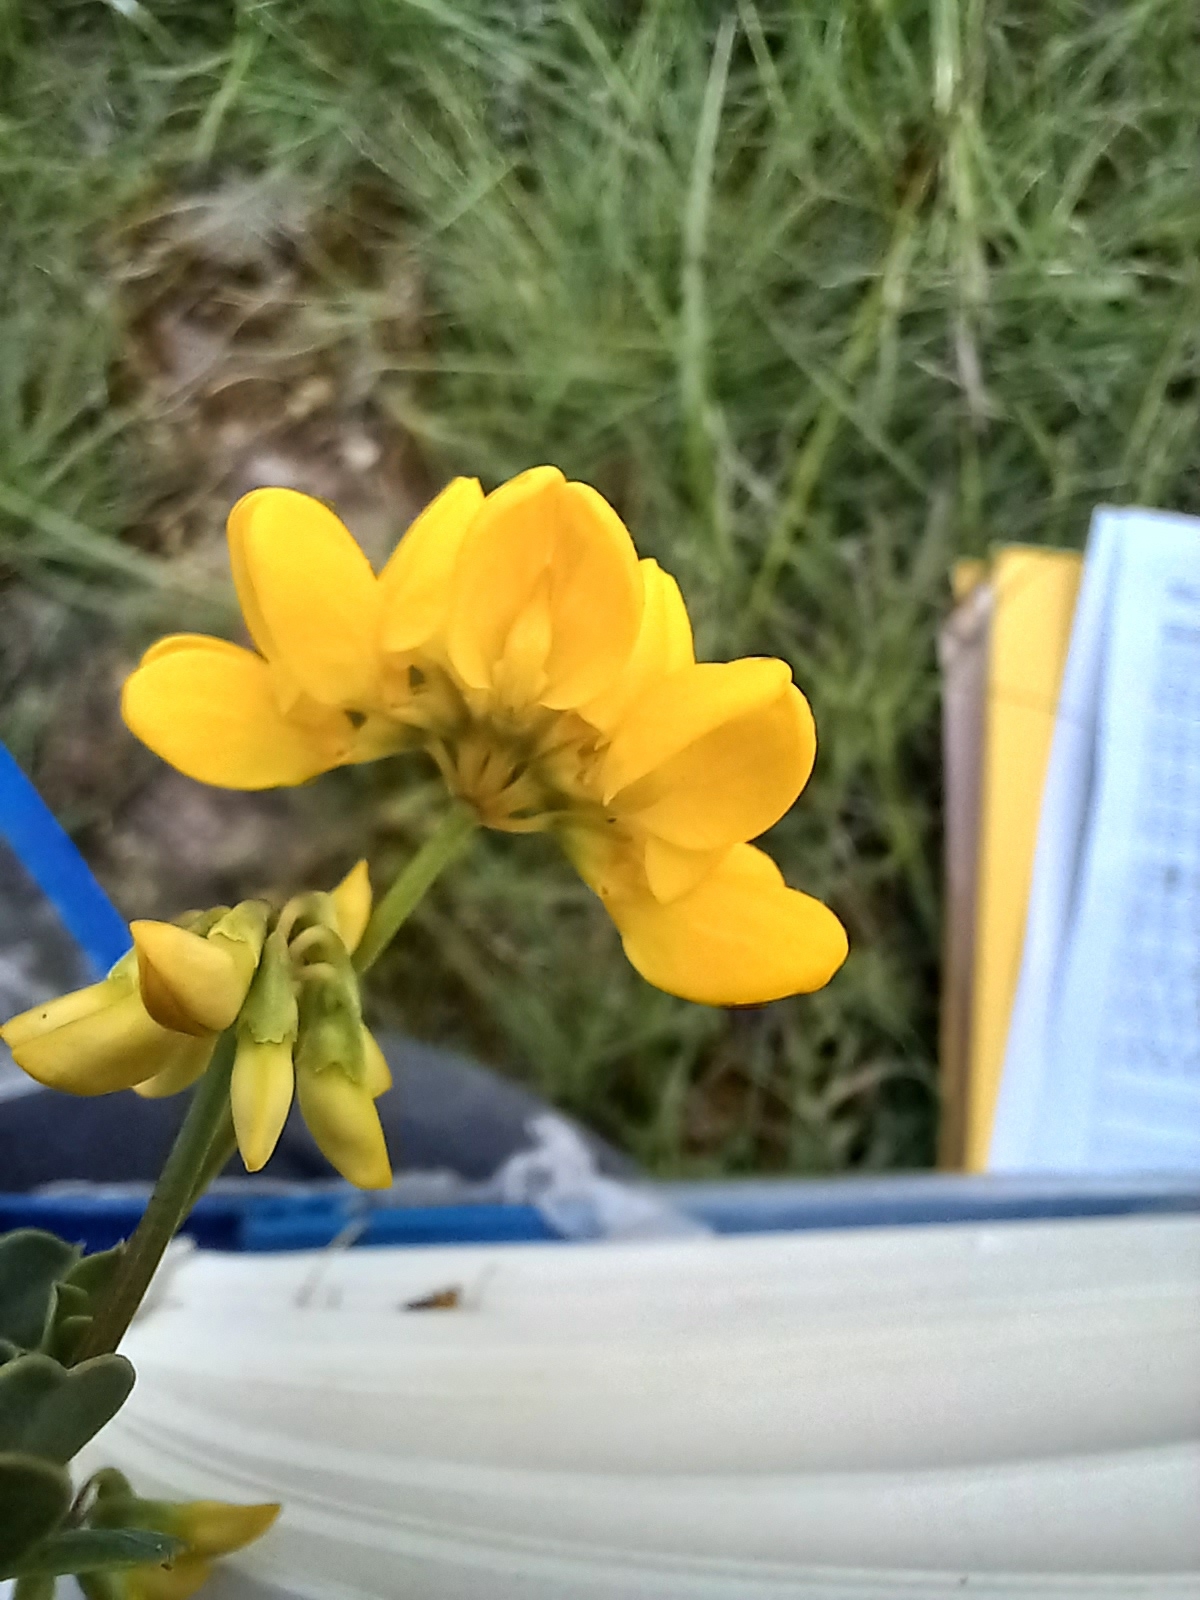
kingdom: Plantae
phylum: Tracheophyta
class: Magnoliopsida
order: Fabales
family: Fabaceae
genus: Coronilla
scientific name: Coronilla valentina
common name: Shrubby scorpion-vetch
